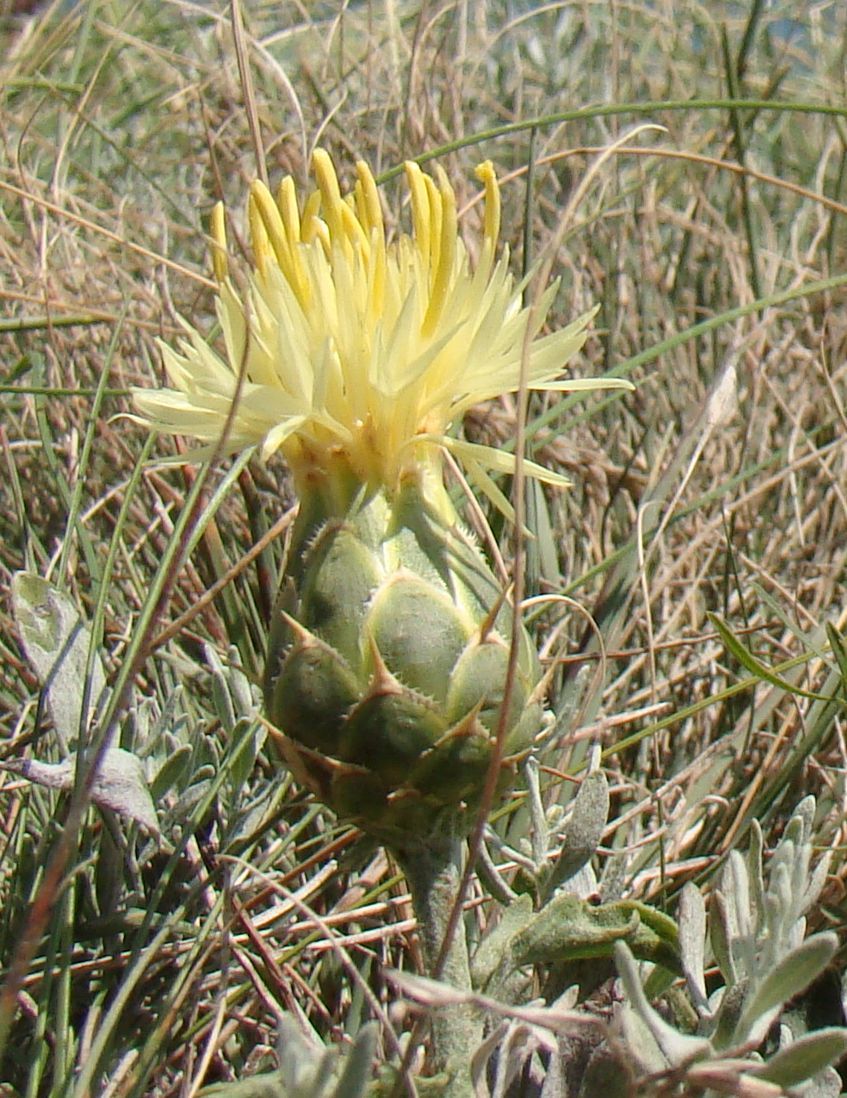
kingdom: Plantae
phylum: Tracheophyta
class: Magnoliopsida
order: Asterales
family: Asteraceae
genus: Centaurea
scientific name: Centaurea salonitana
